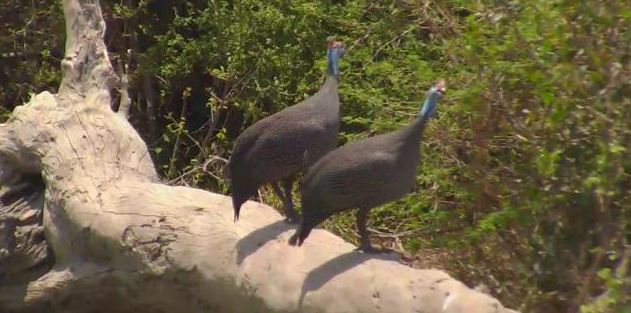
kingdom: Animalia
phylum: Chordata
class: Aves
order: Galliformes
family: Numididae
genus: Numida
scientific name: Numida meleagris
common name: Helmeted guineafowl
